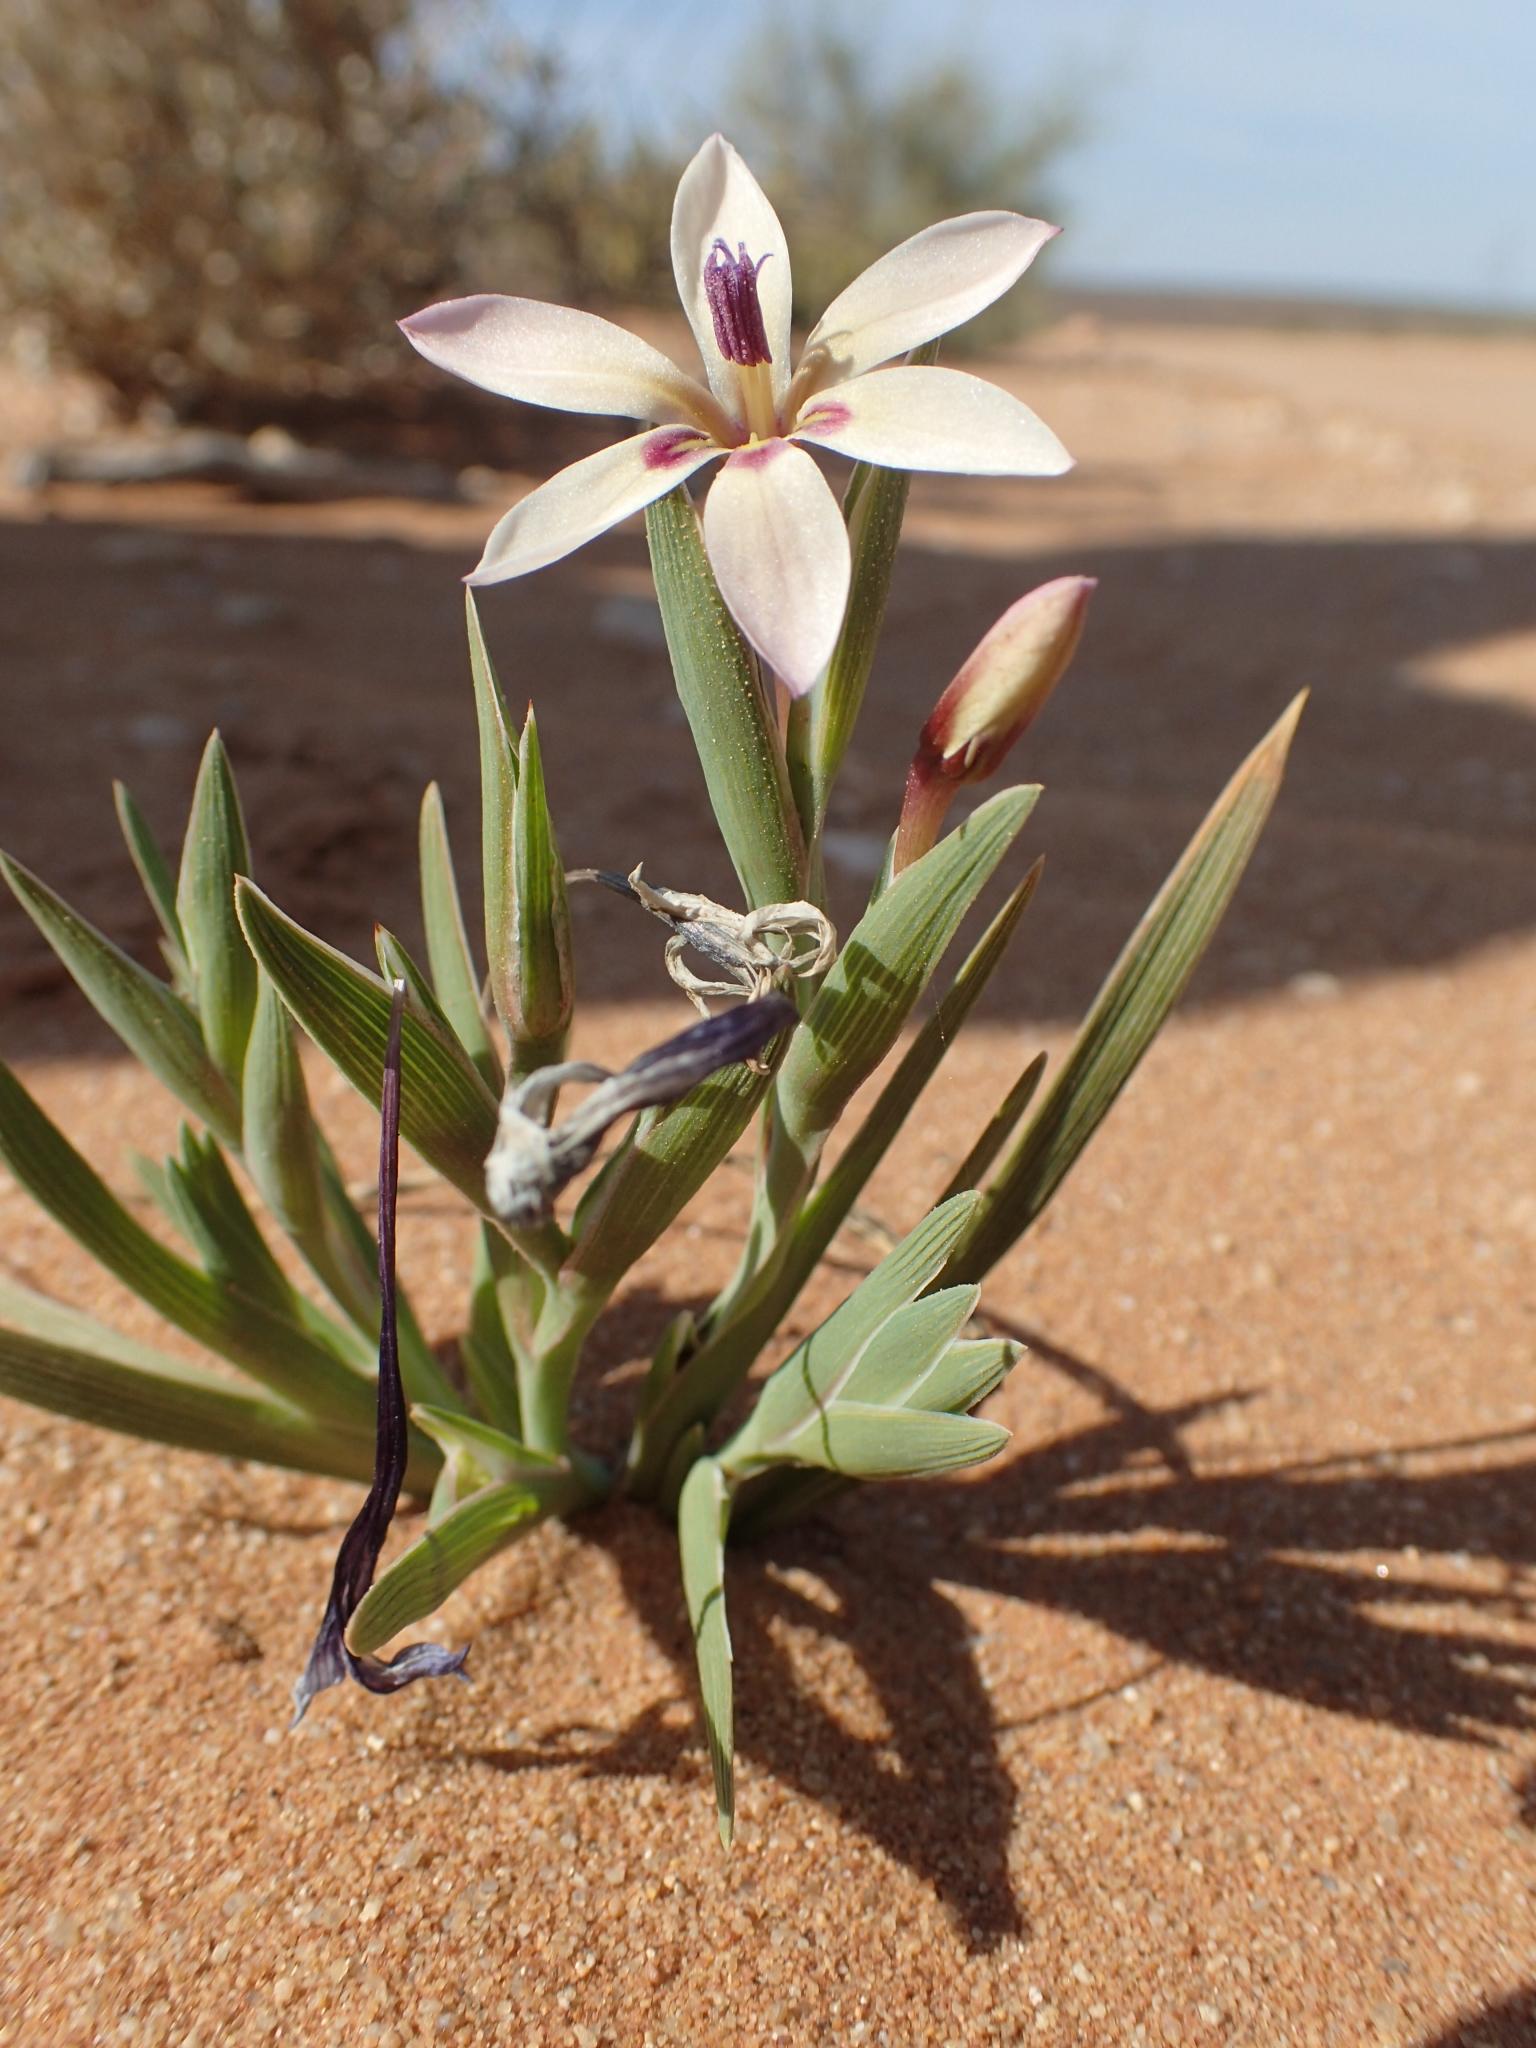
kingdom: Plantae
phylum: Tracheophyta
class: Liliopsida
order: Asparagales
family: Iridaceae
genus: Lapeirousia
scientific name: Lapeirousia macrospatha
